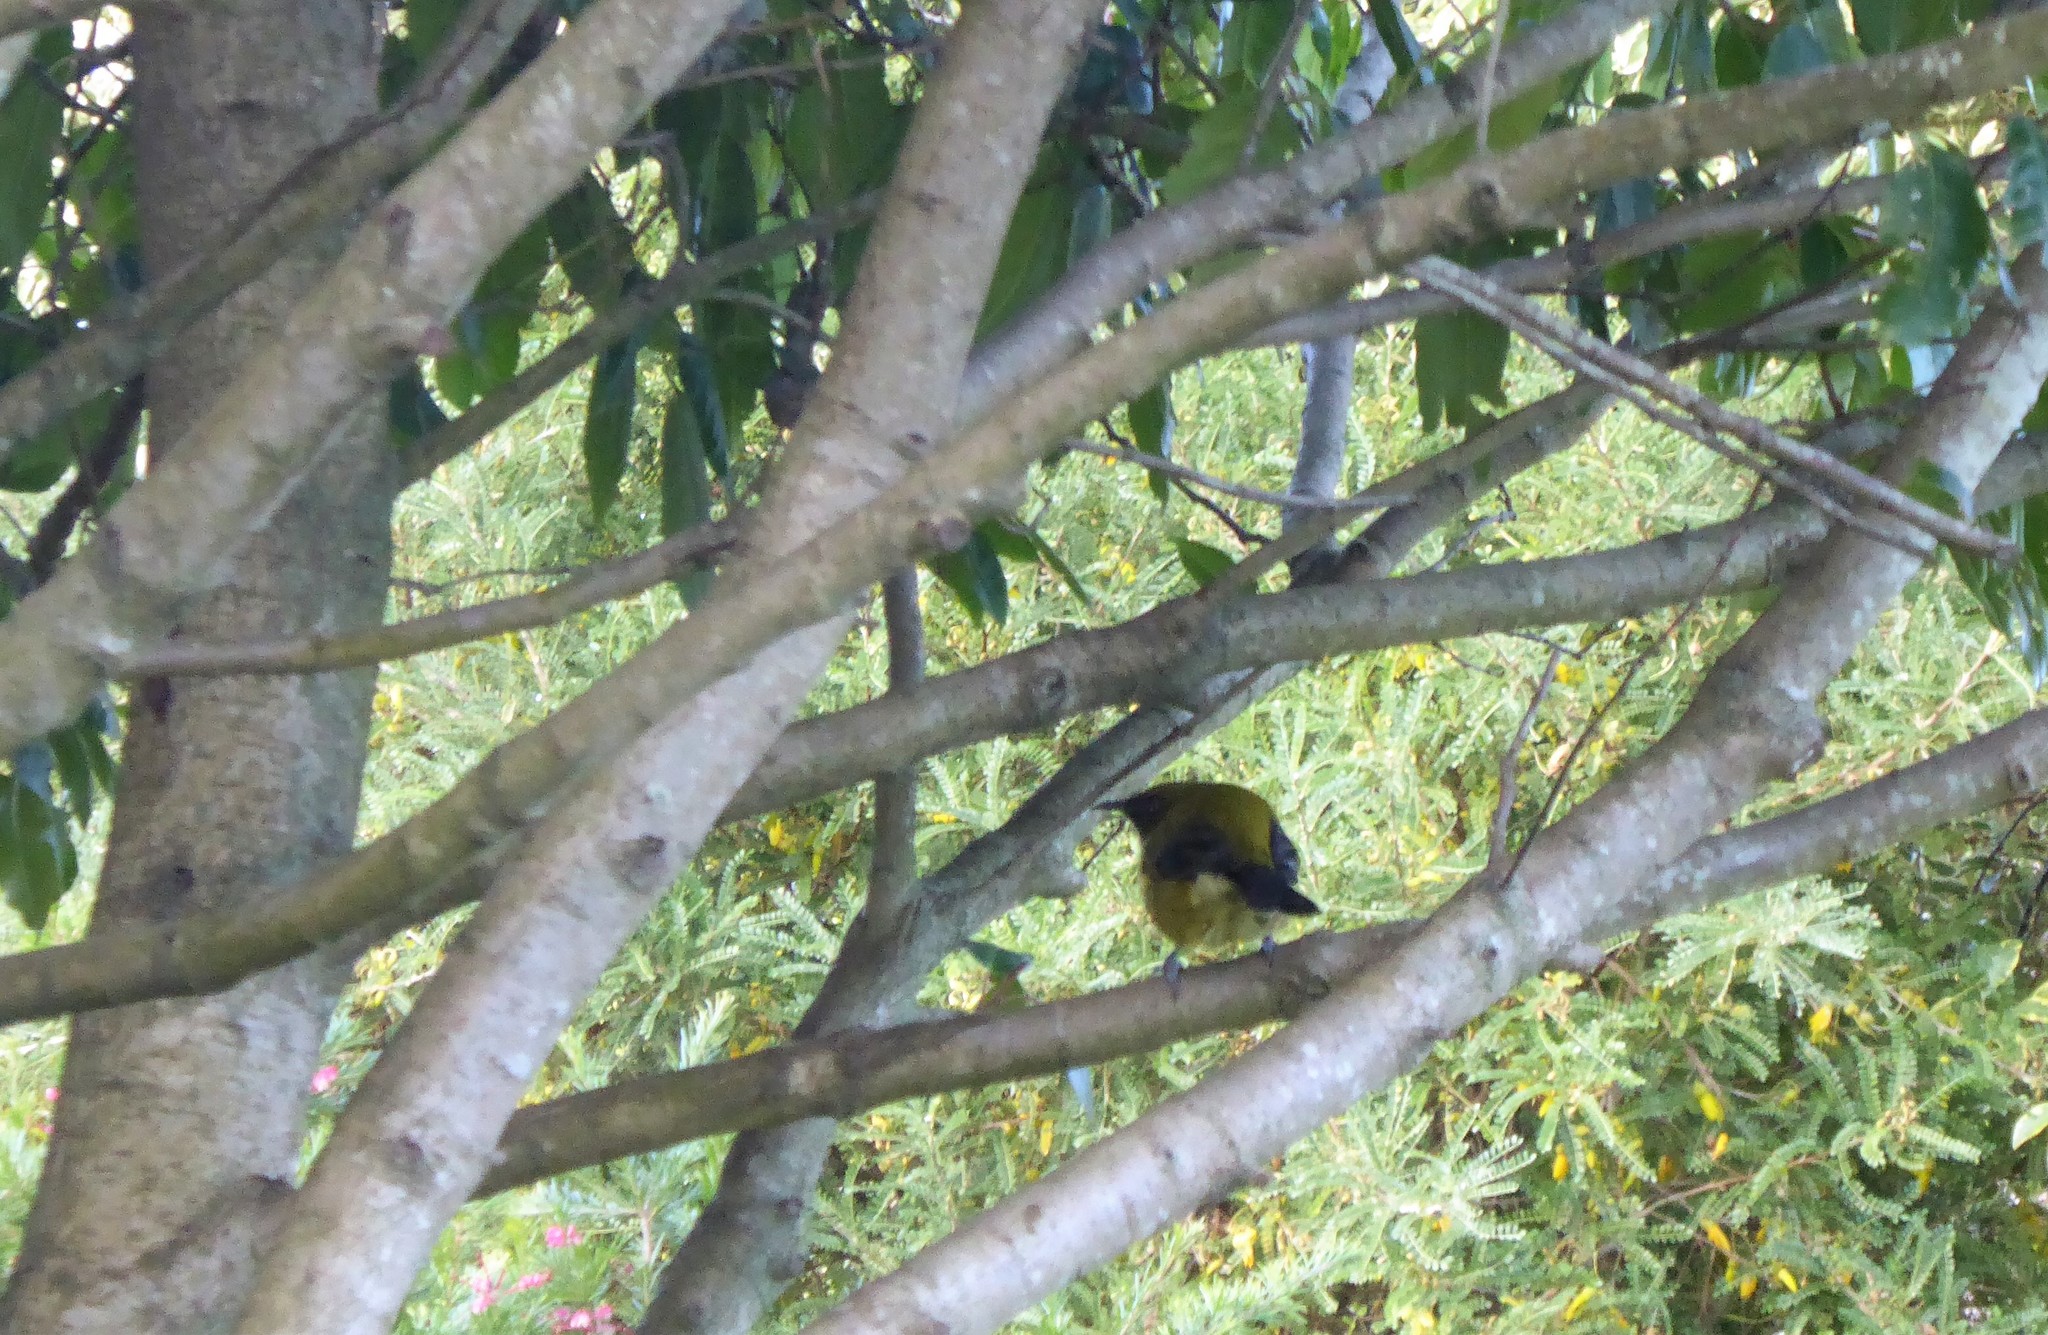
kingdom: Animalia
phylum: Chordata
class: Aves
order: Passeriformes
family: Meliphagidae
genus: Anthornis
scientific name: Anthornis melanura
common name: New zealand bellbird
